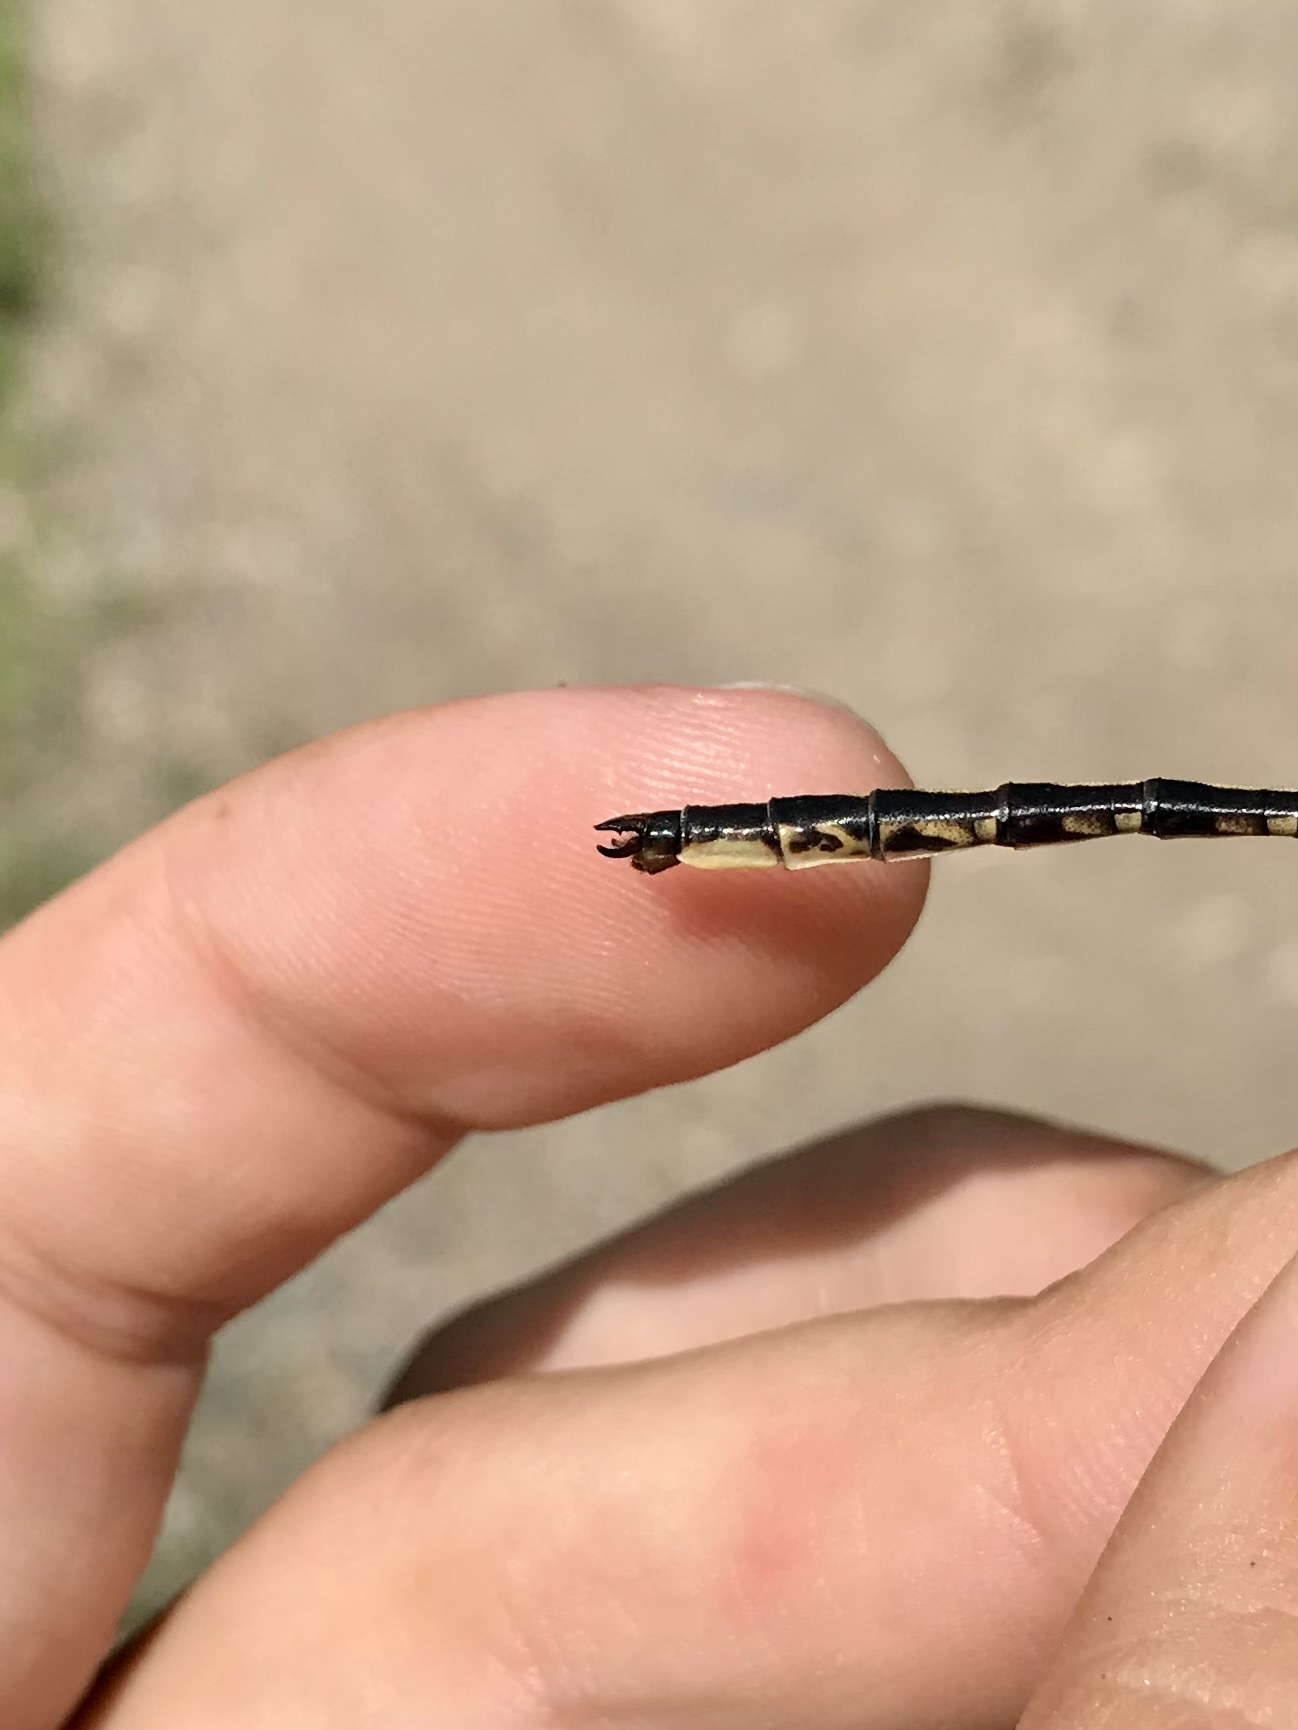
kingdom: Animalia
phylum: Arthropoda
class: Insecta
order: Odonata
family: Gomphidae
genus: Phanogomphus
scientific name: Phanogomphus spicatus
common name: Dusky clubtail
